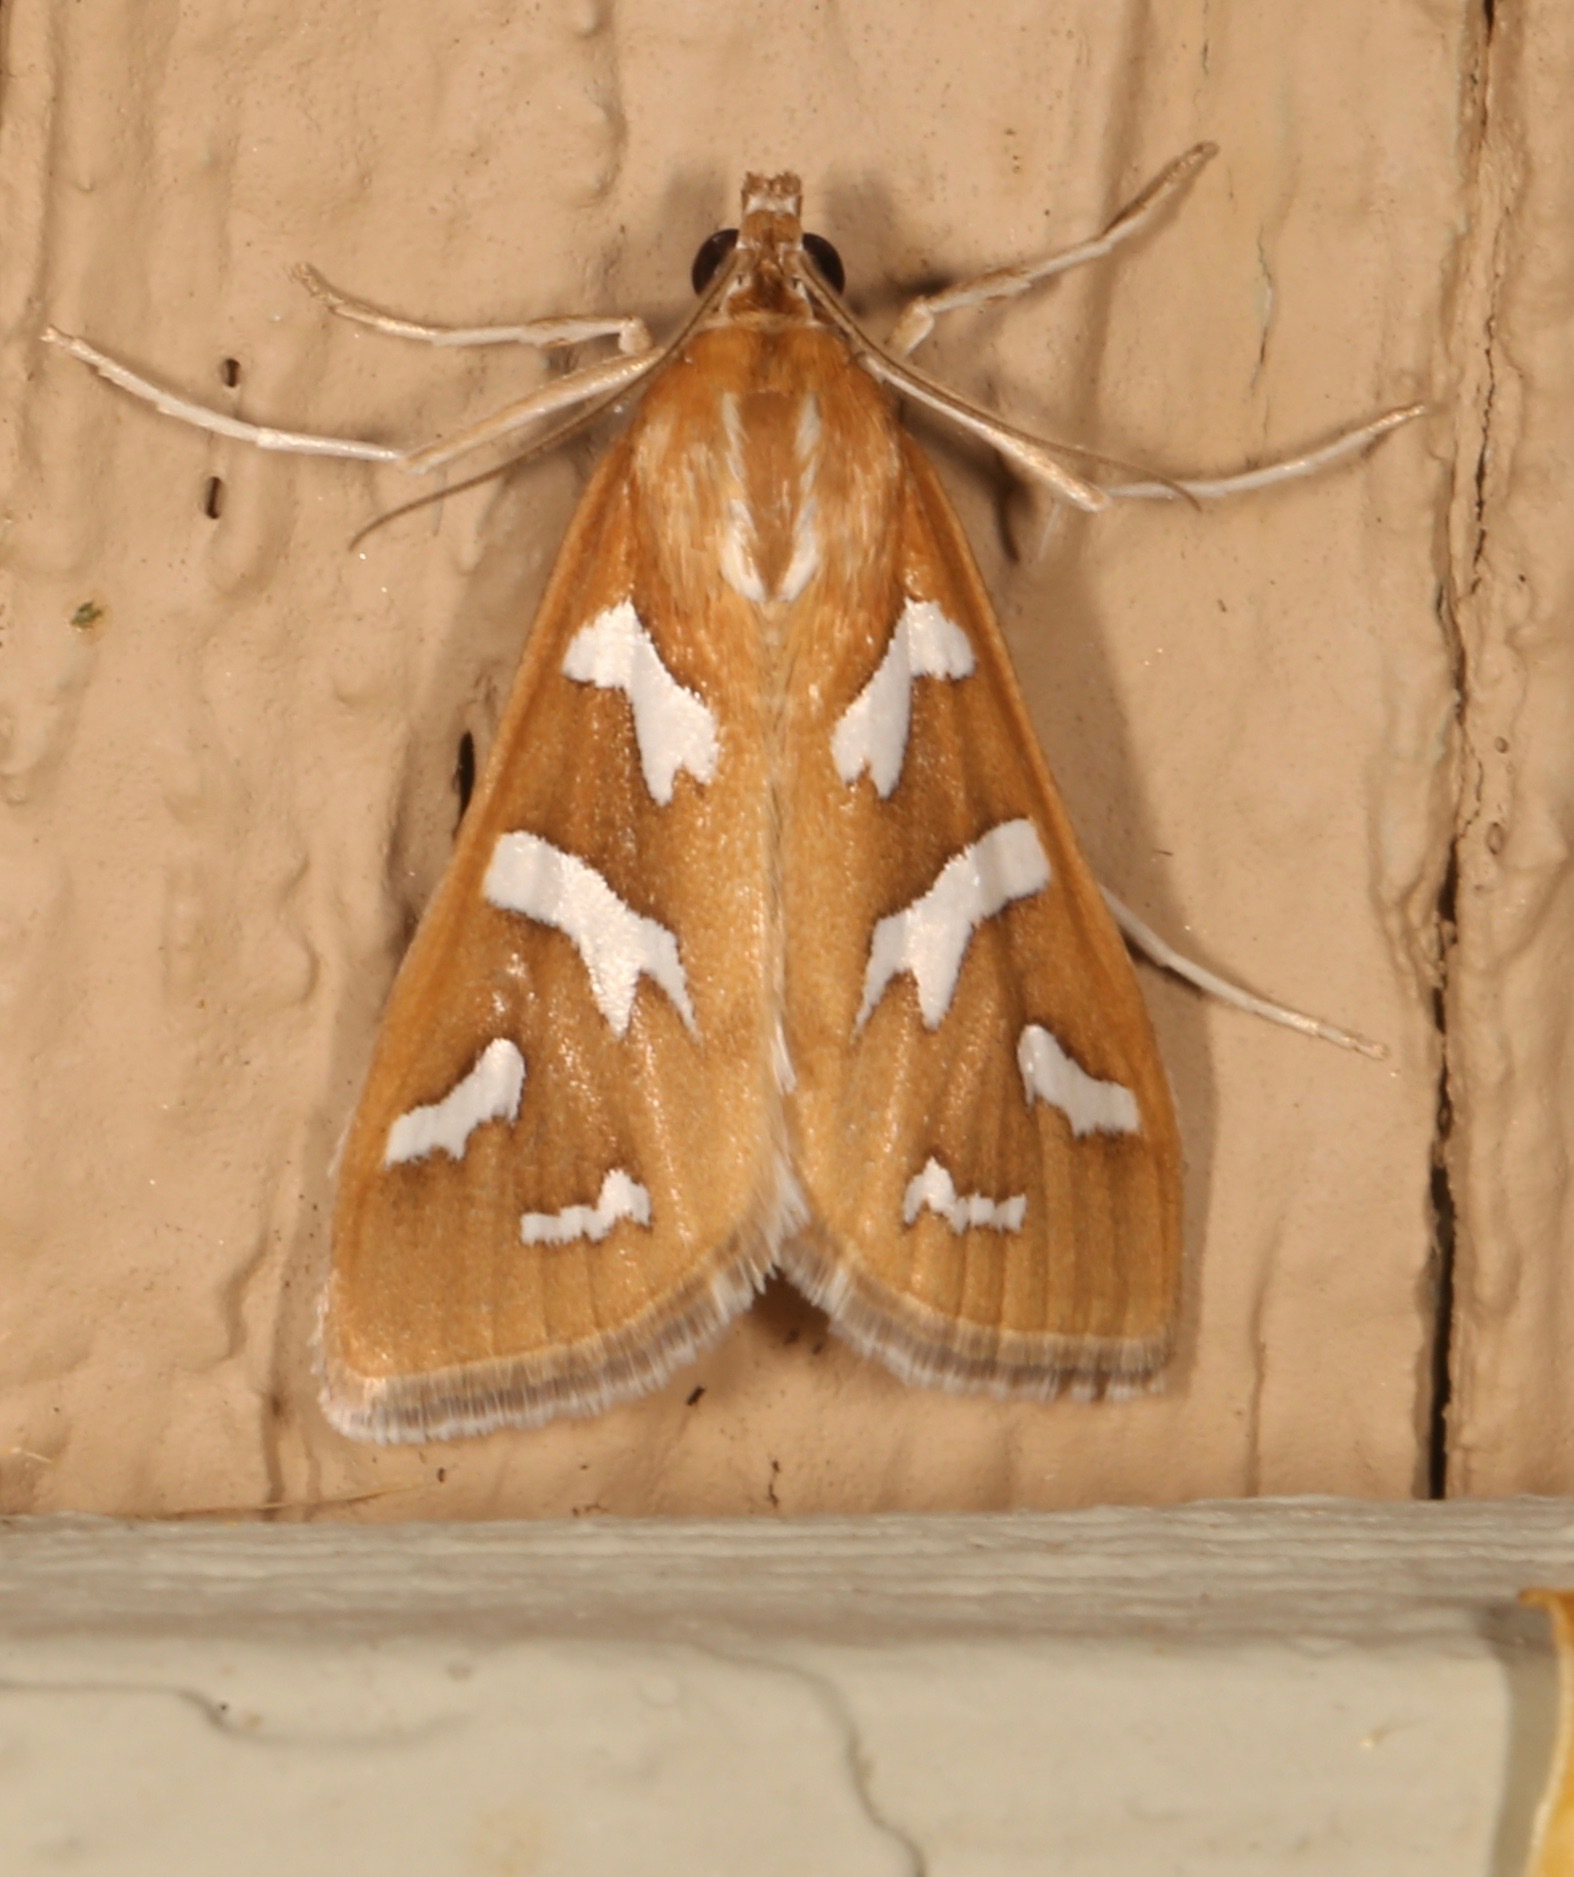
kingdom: Animalia
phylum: Arthropoda
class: Insecta
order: Lepidoptera
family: Crambidae
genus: Diastictis
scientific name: Diastictis fracturalis
